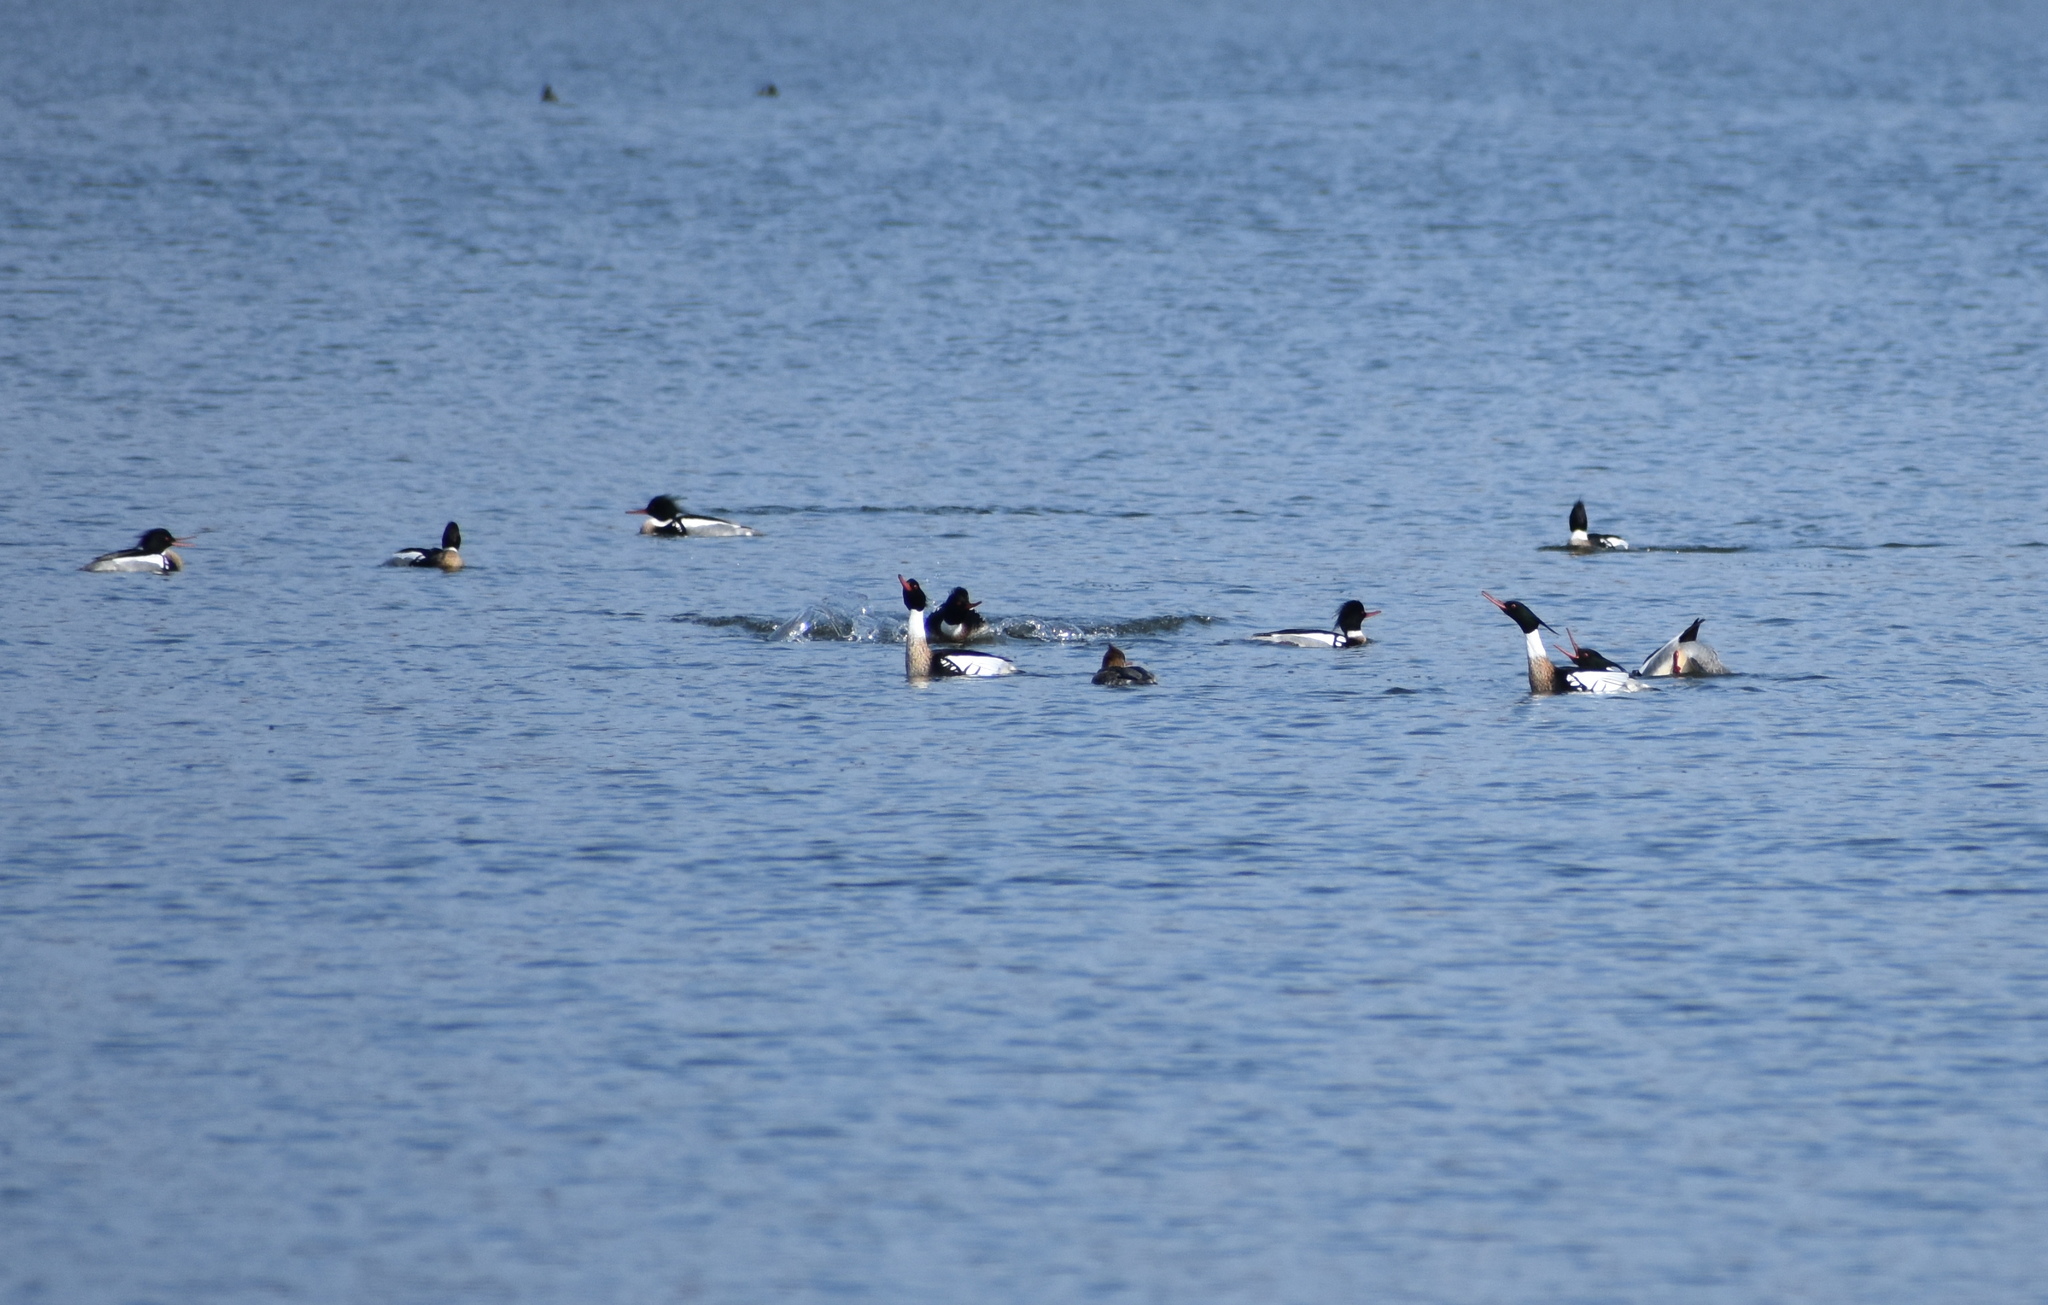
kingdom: Animalia
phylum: Chordata
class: Aves
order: Anseriformes
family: Anatidae
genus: Mergus
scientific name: Mergus serrator
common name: Red-breasted merganser
